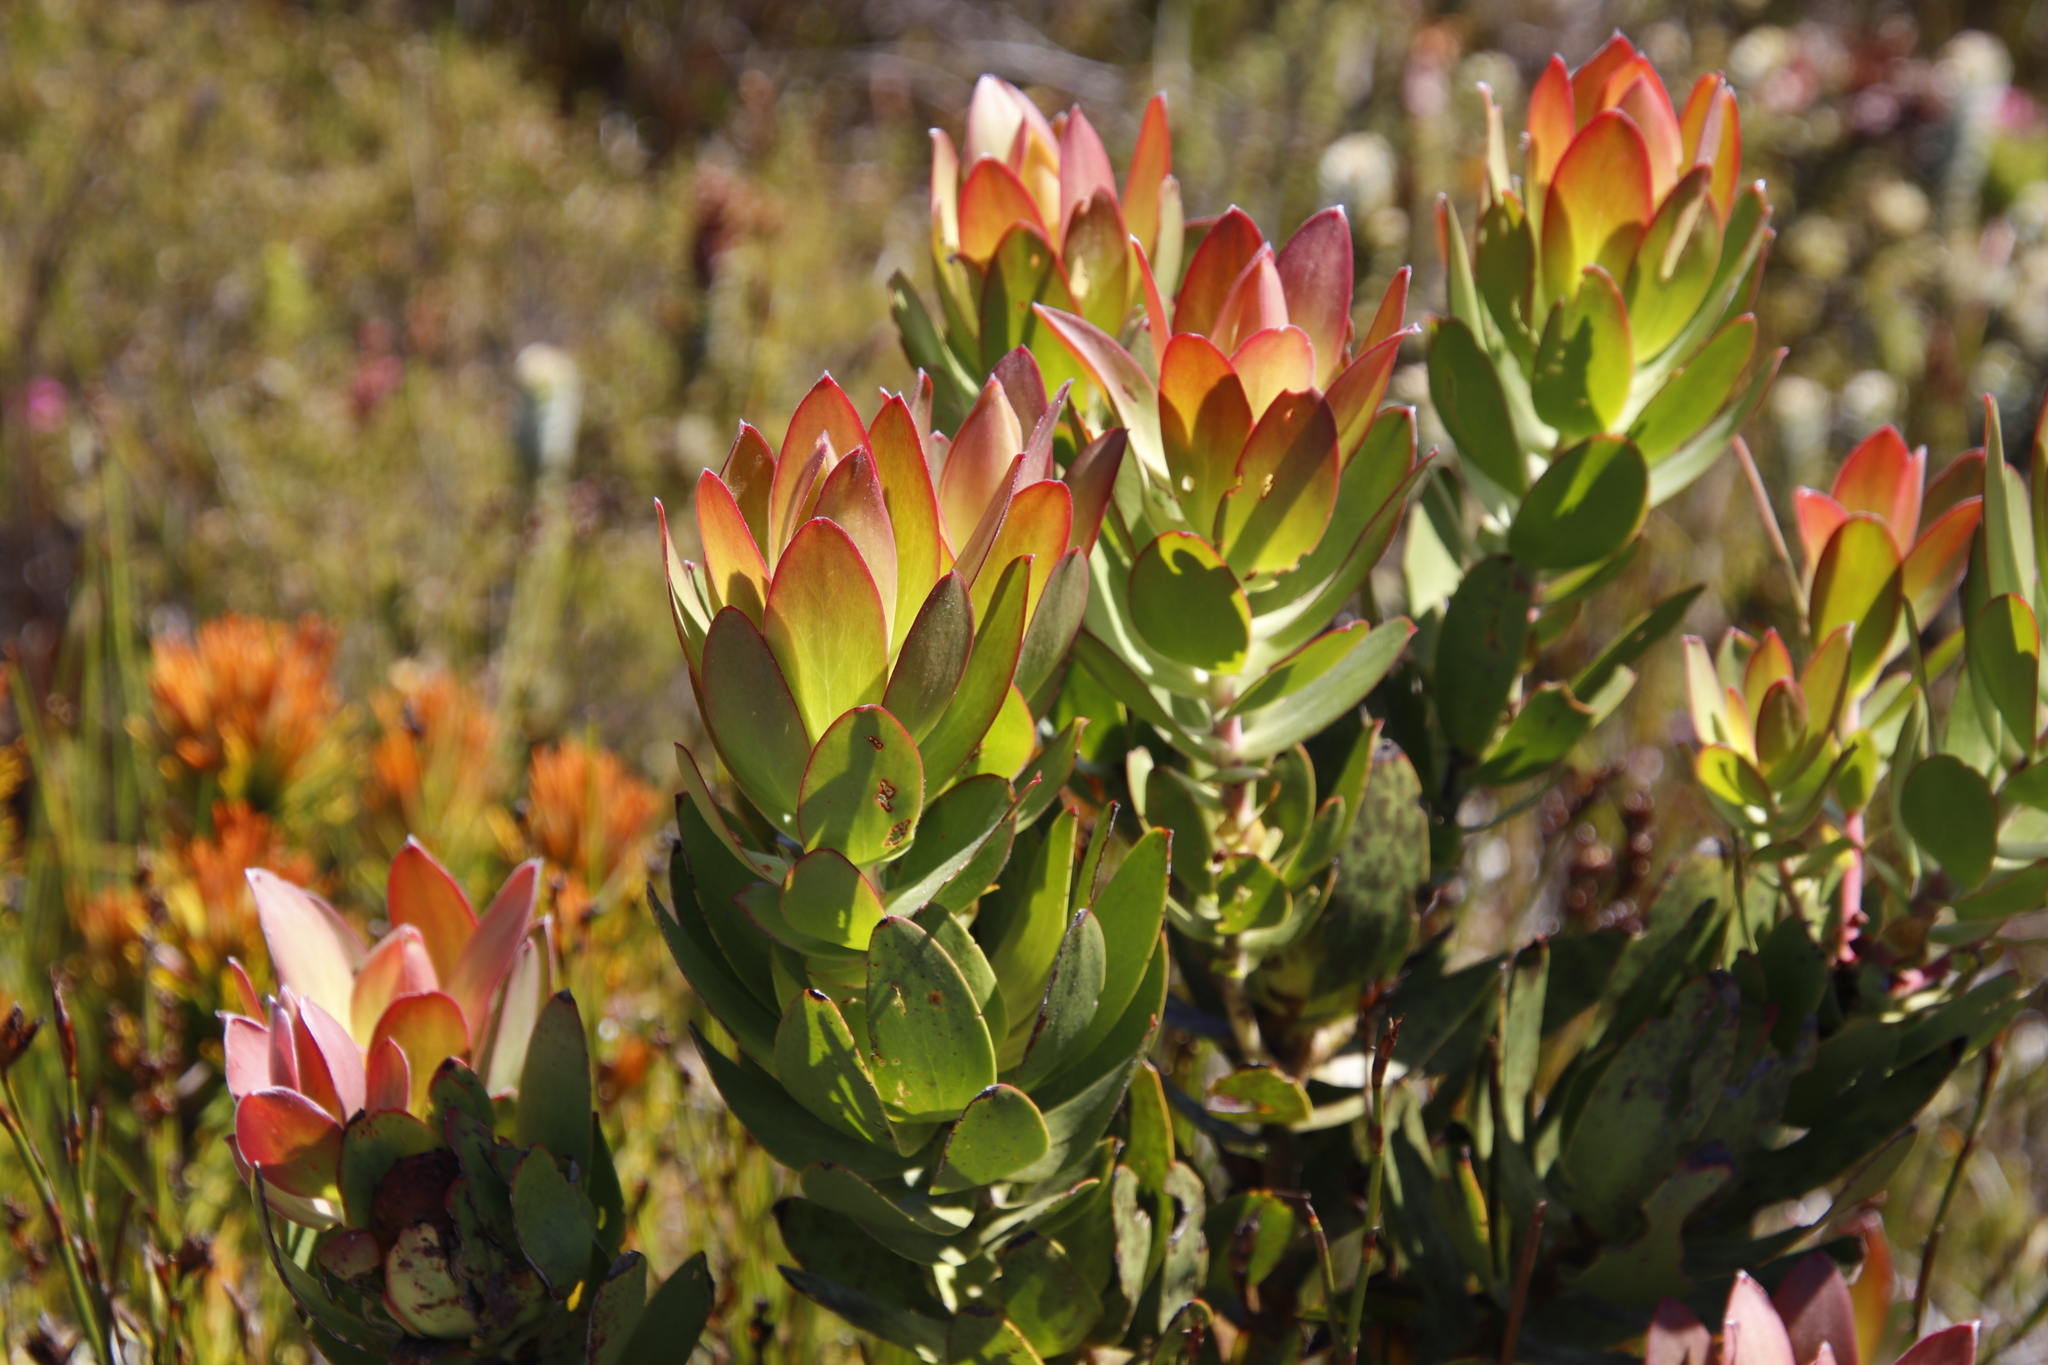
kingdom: Plantae
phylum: Tracheophyta
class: Magnoliopsida
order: Proteales
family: Proteaceae
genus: Leucadendron
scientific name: Leucadendron gandogeri
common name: Broad-leaf conebush
